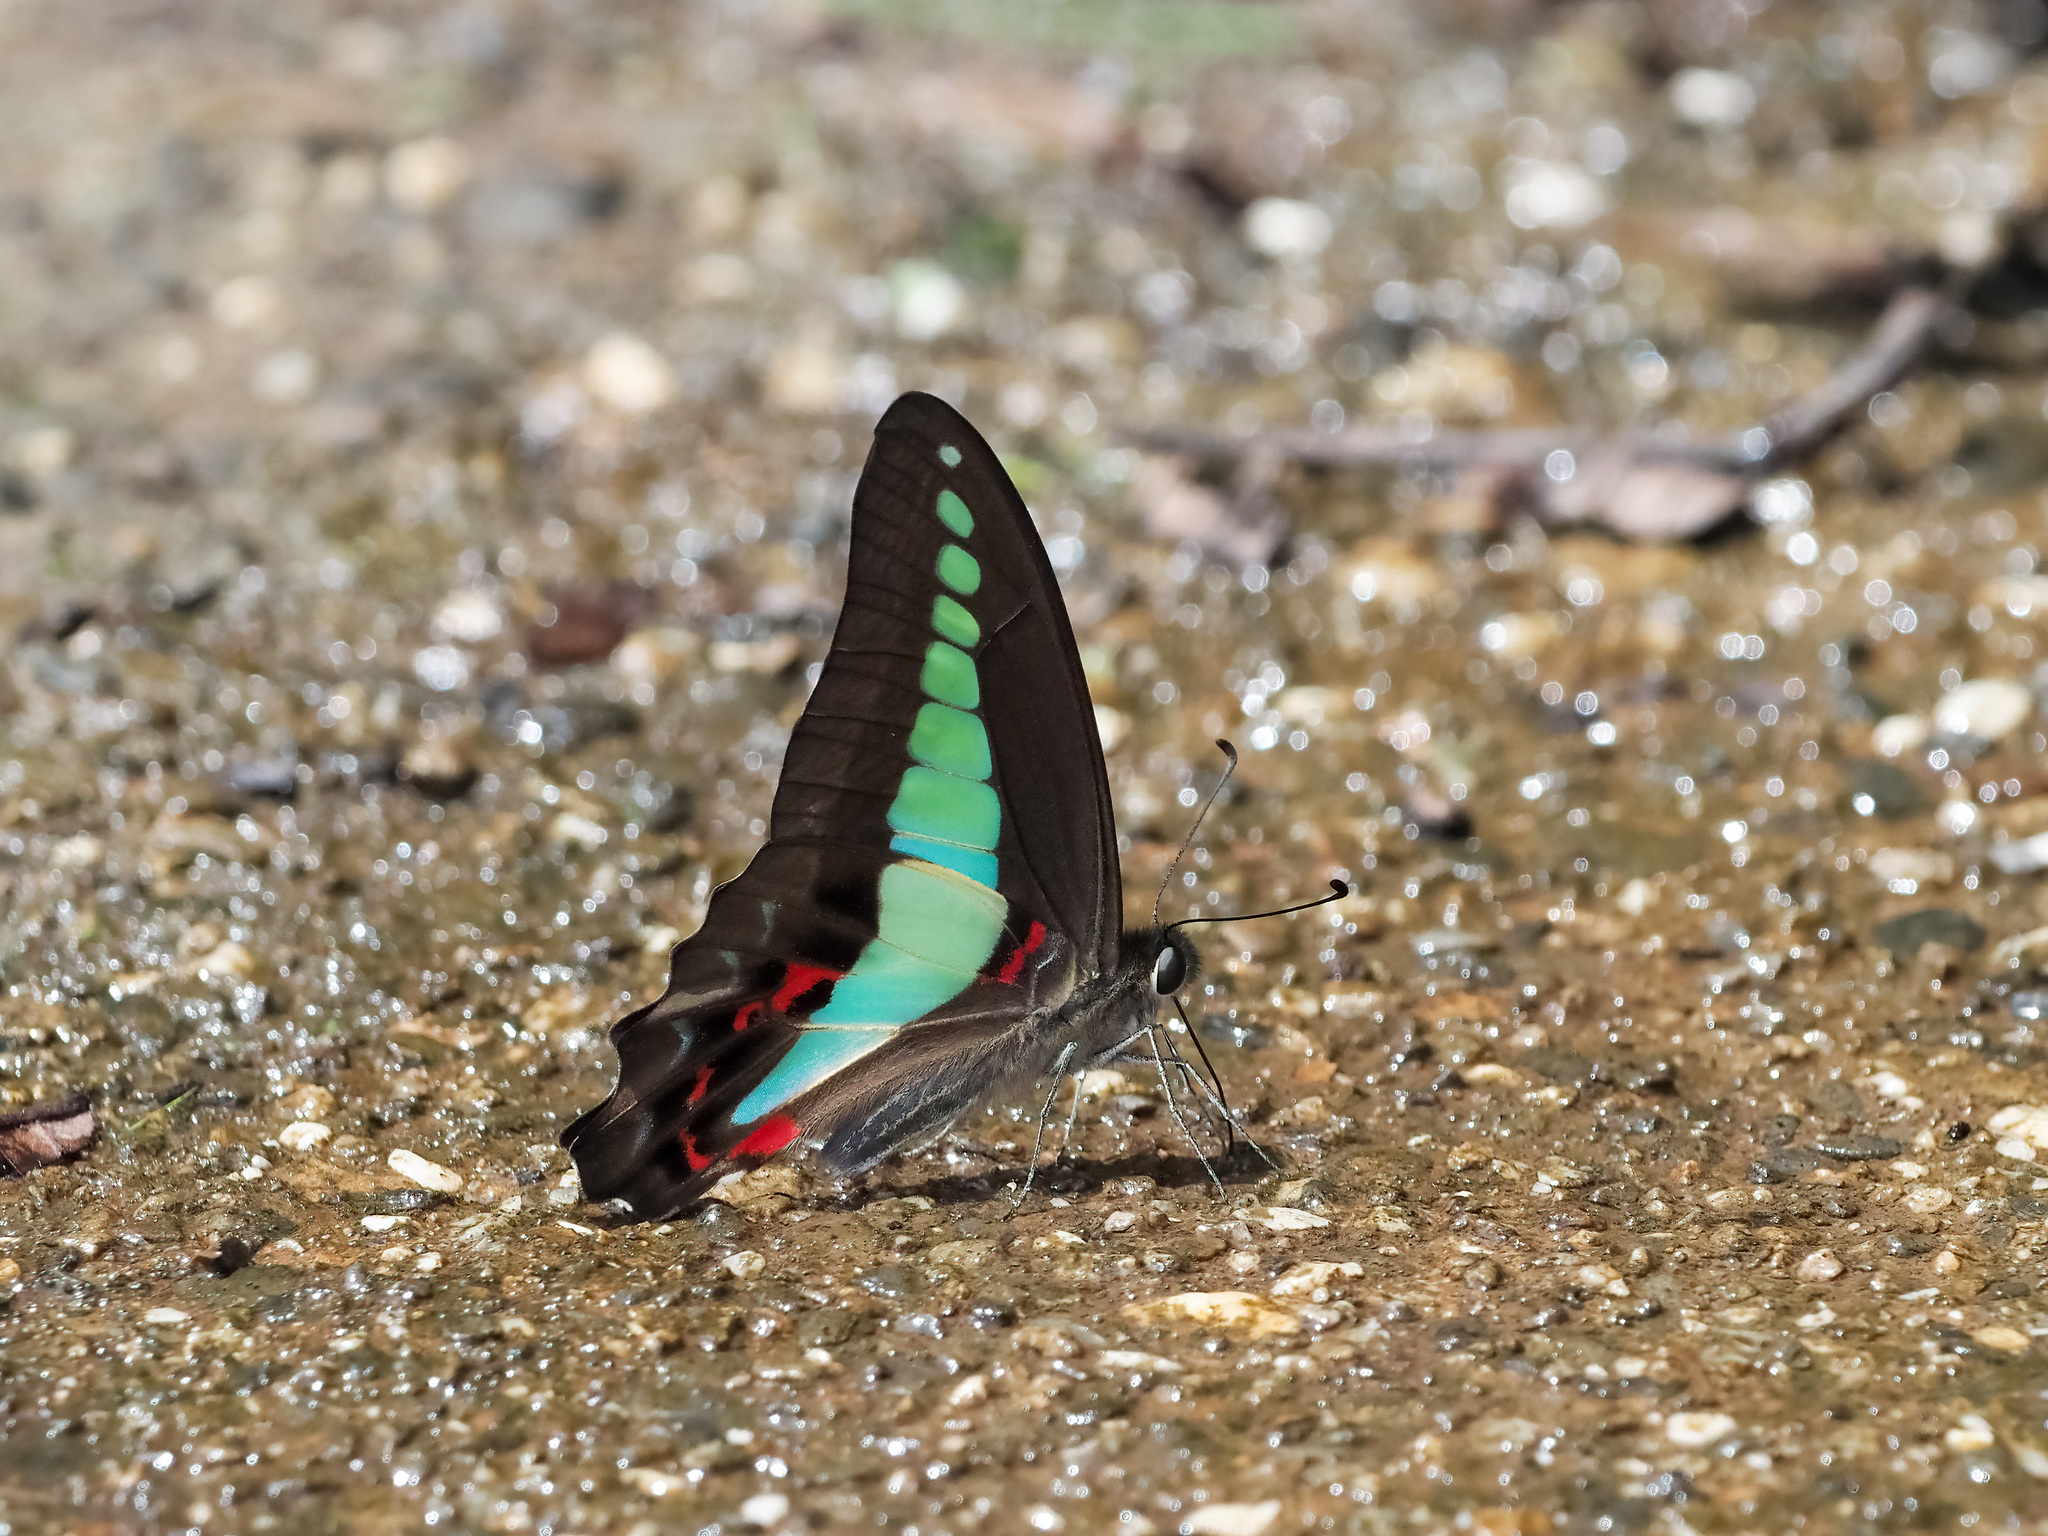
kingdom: Fungi
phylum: Ascomycota
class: Sordariomycetes
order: Microascales
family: Microascaceae
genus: Graphium
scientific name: Graphium sarpedon
